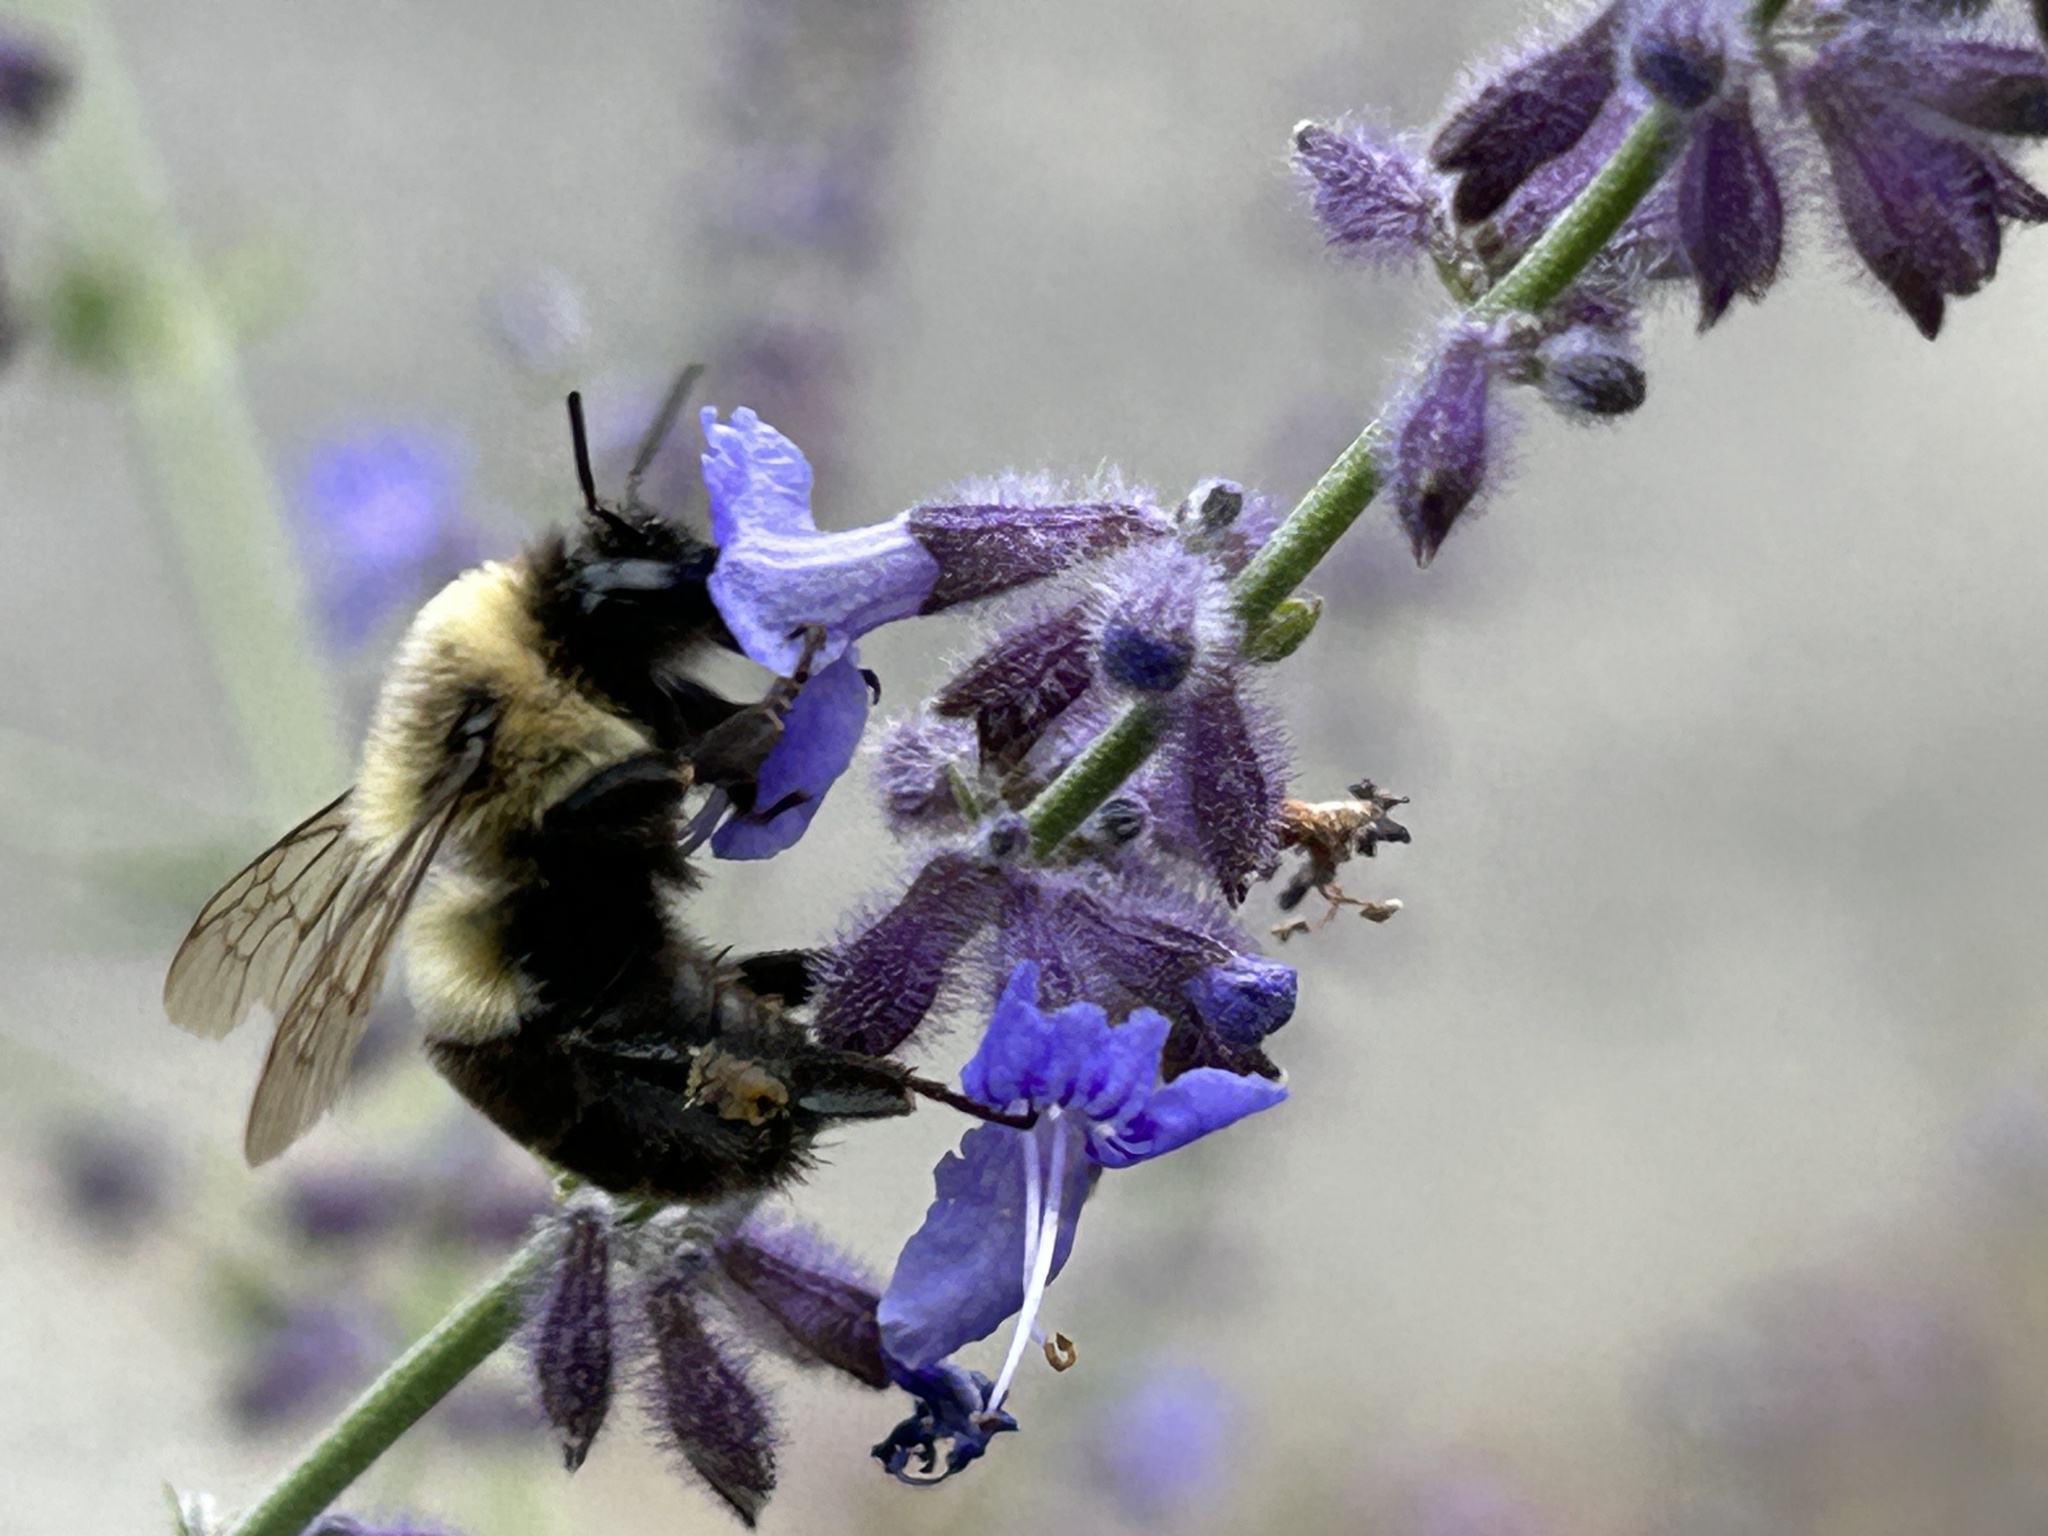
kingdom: Animalia
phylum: Arthropoda
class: Insecta
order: Hymenoptera
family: Apidae
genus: Bombus
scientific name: Bombus impatiens
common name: Common eastern bumble bee
